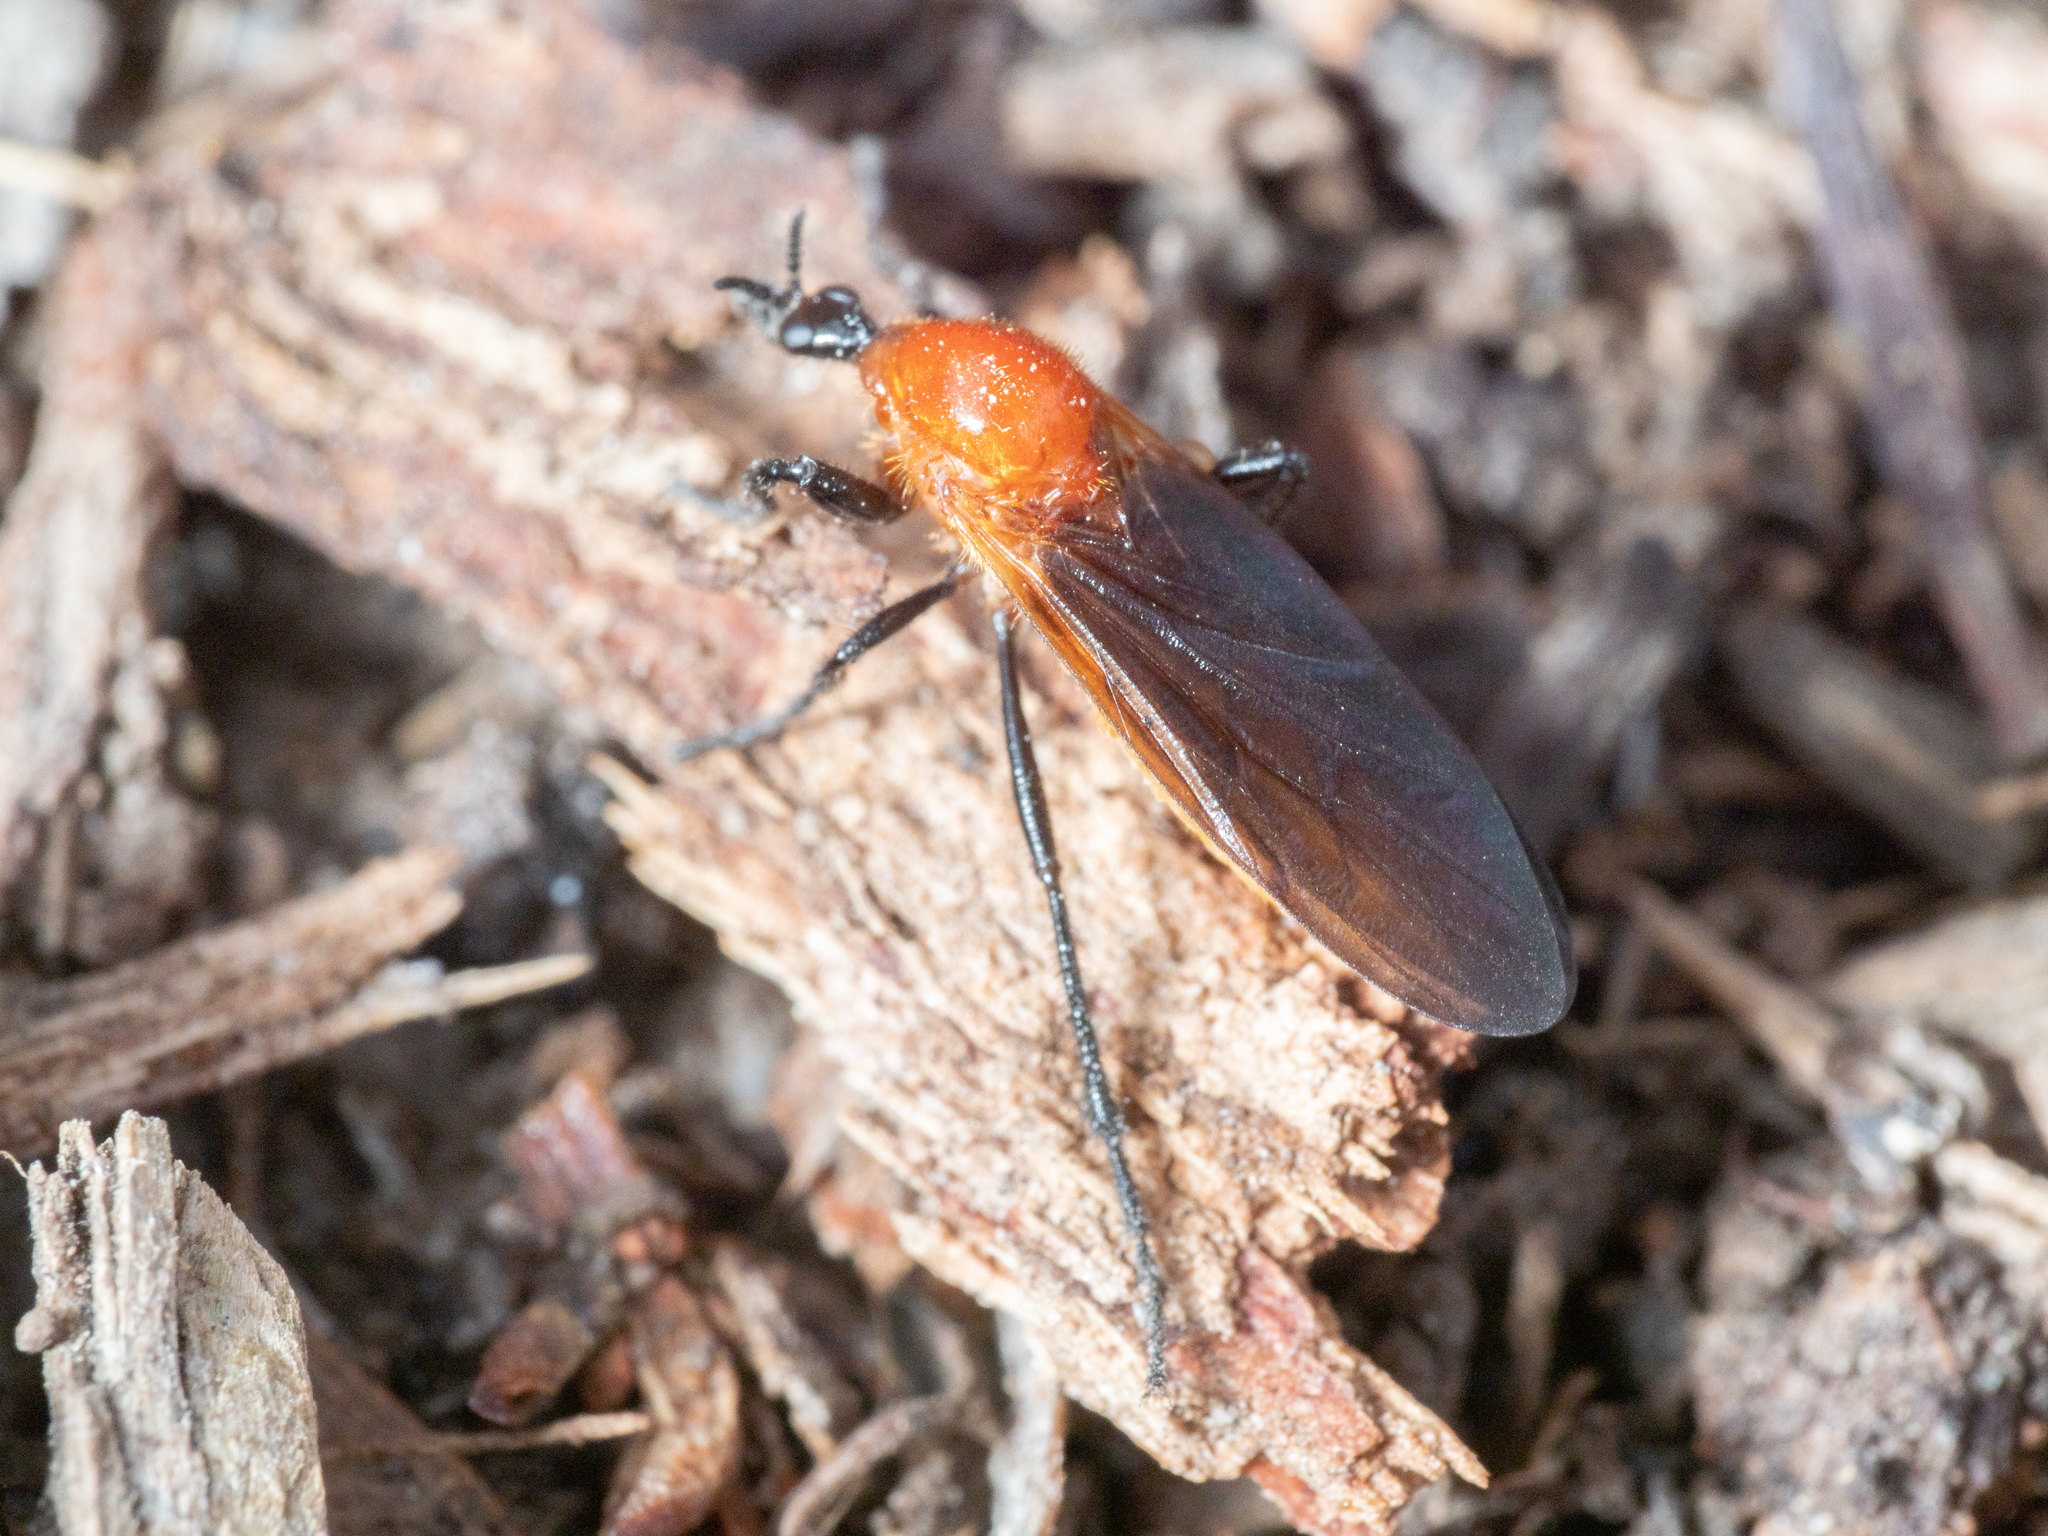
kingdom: Animalia
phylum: Arthropoda
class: Insecta
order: Diptera
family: Bibionidae
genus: Bibio
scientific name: Bibio imitator
